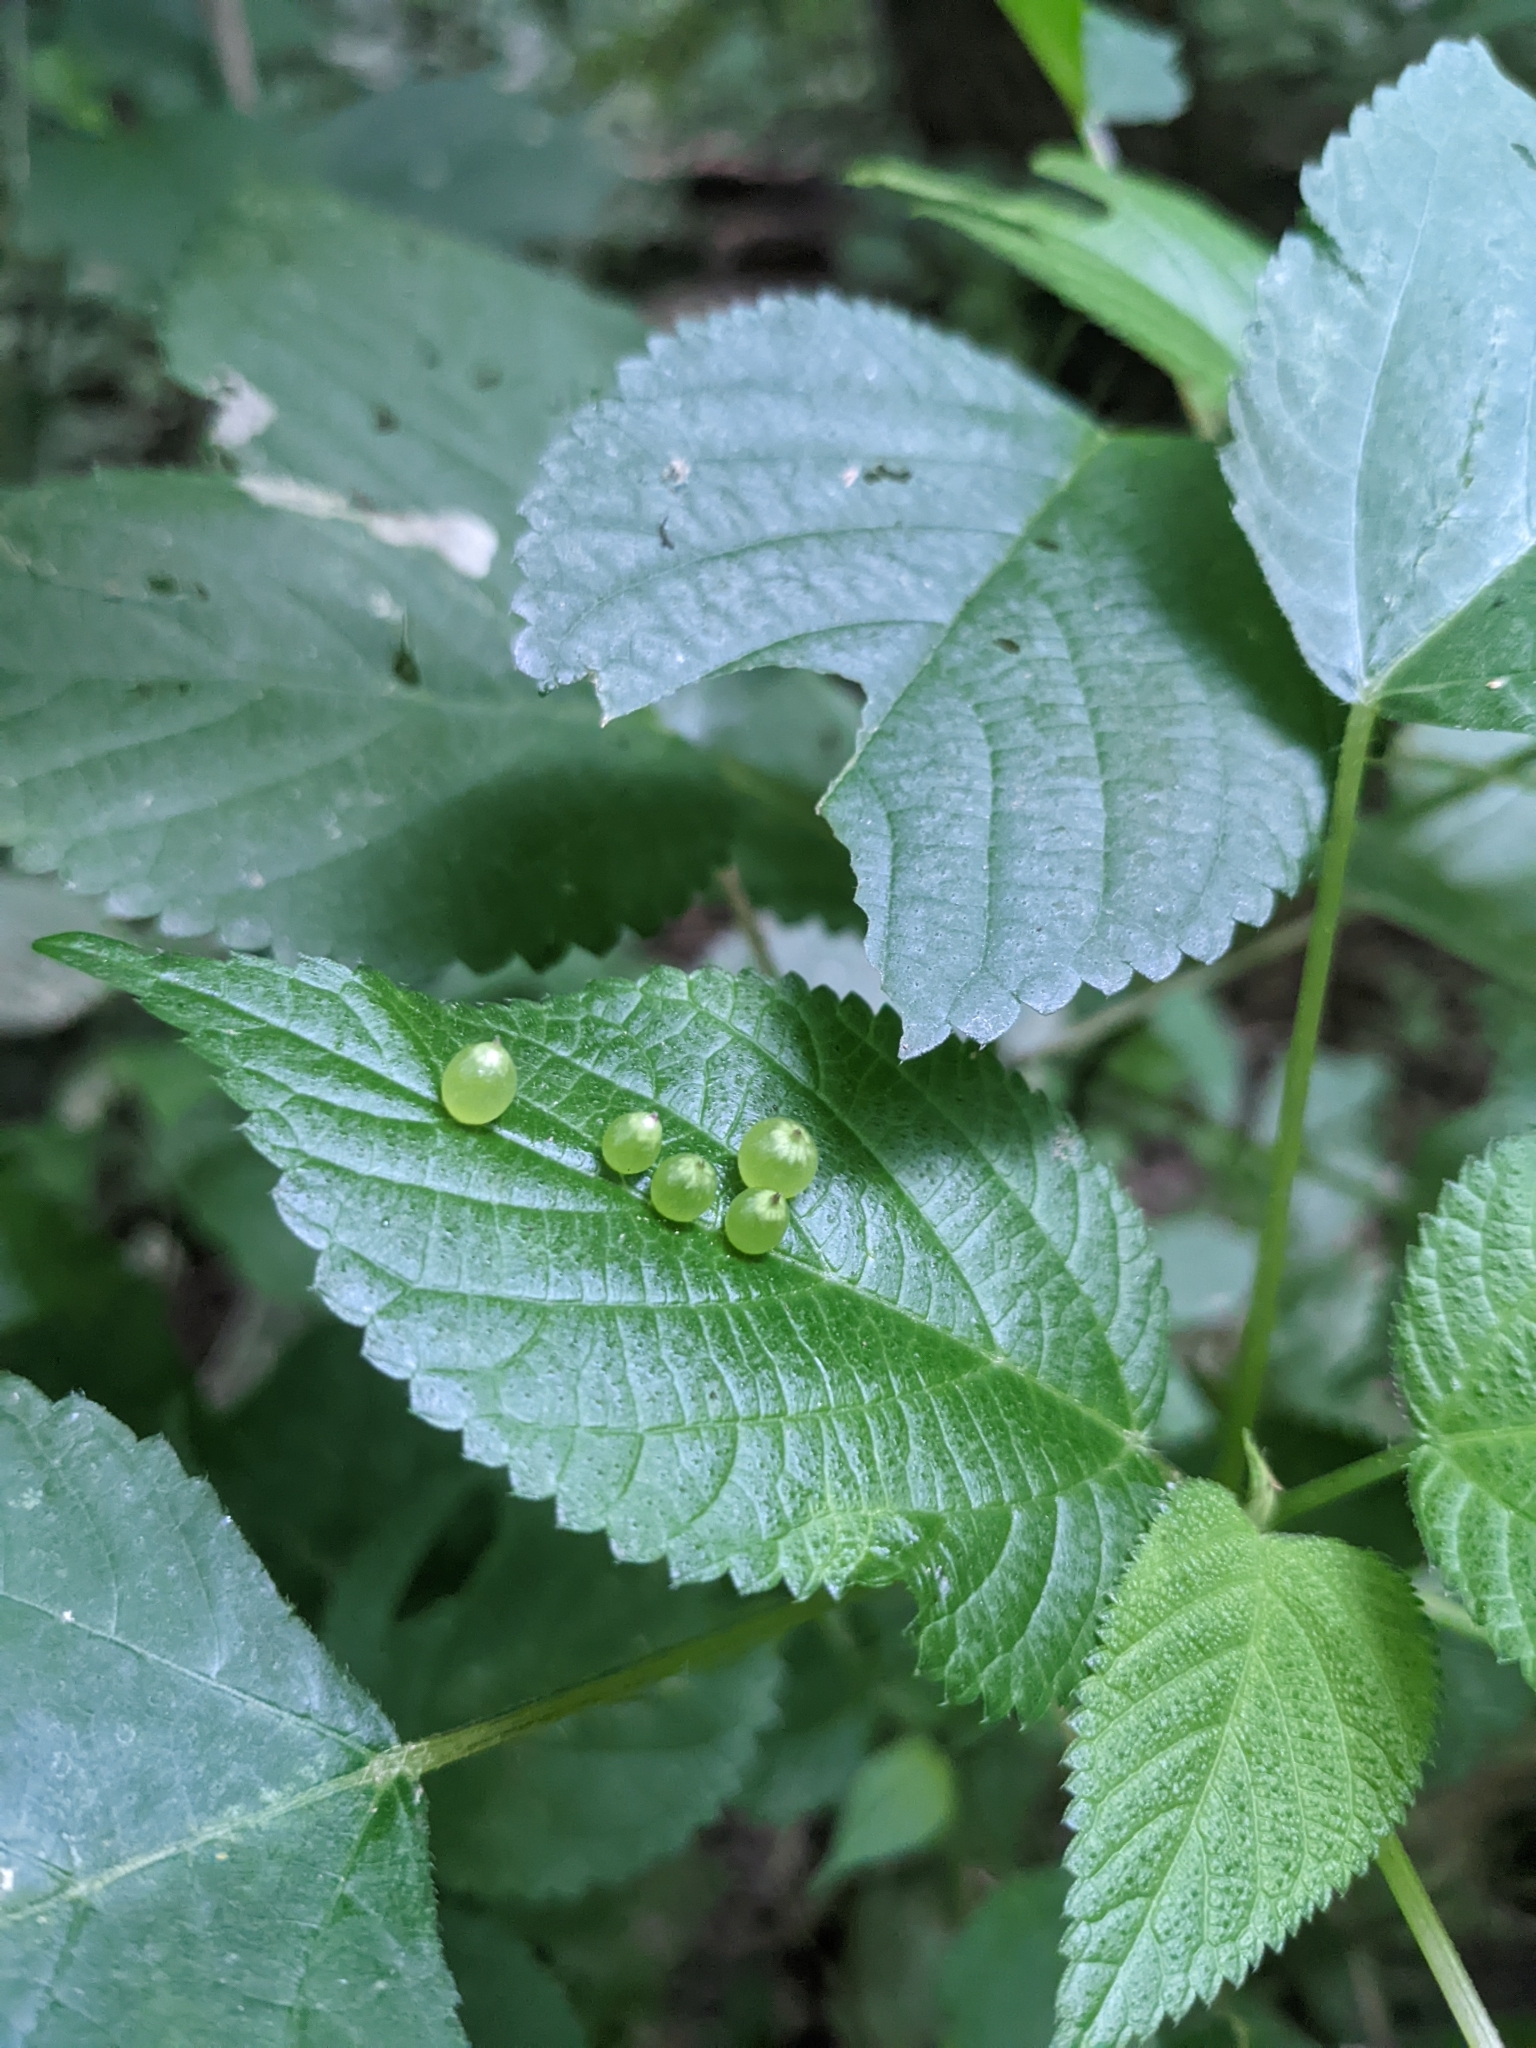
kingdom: Animalia
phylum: Arthropoda
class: Insecta
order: Diptera
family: Cecidomyiidae
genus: Dasineura
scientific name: Dasineura investita
